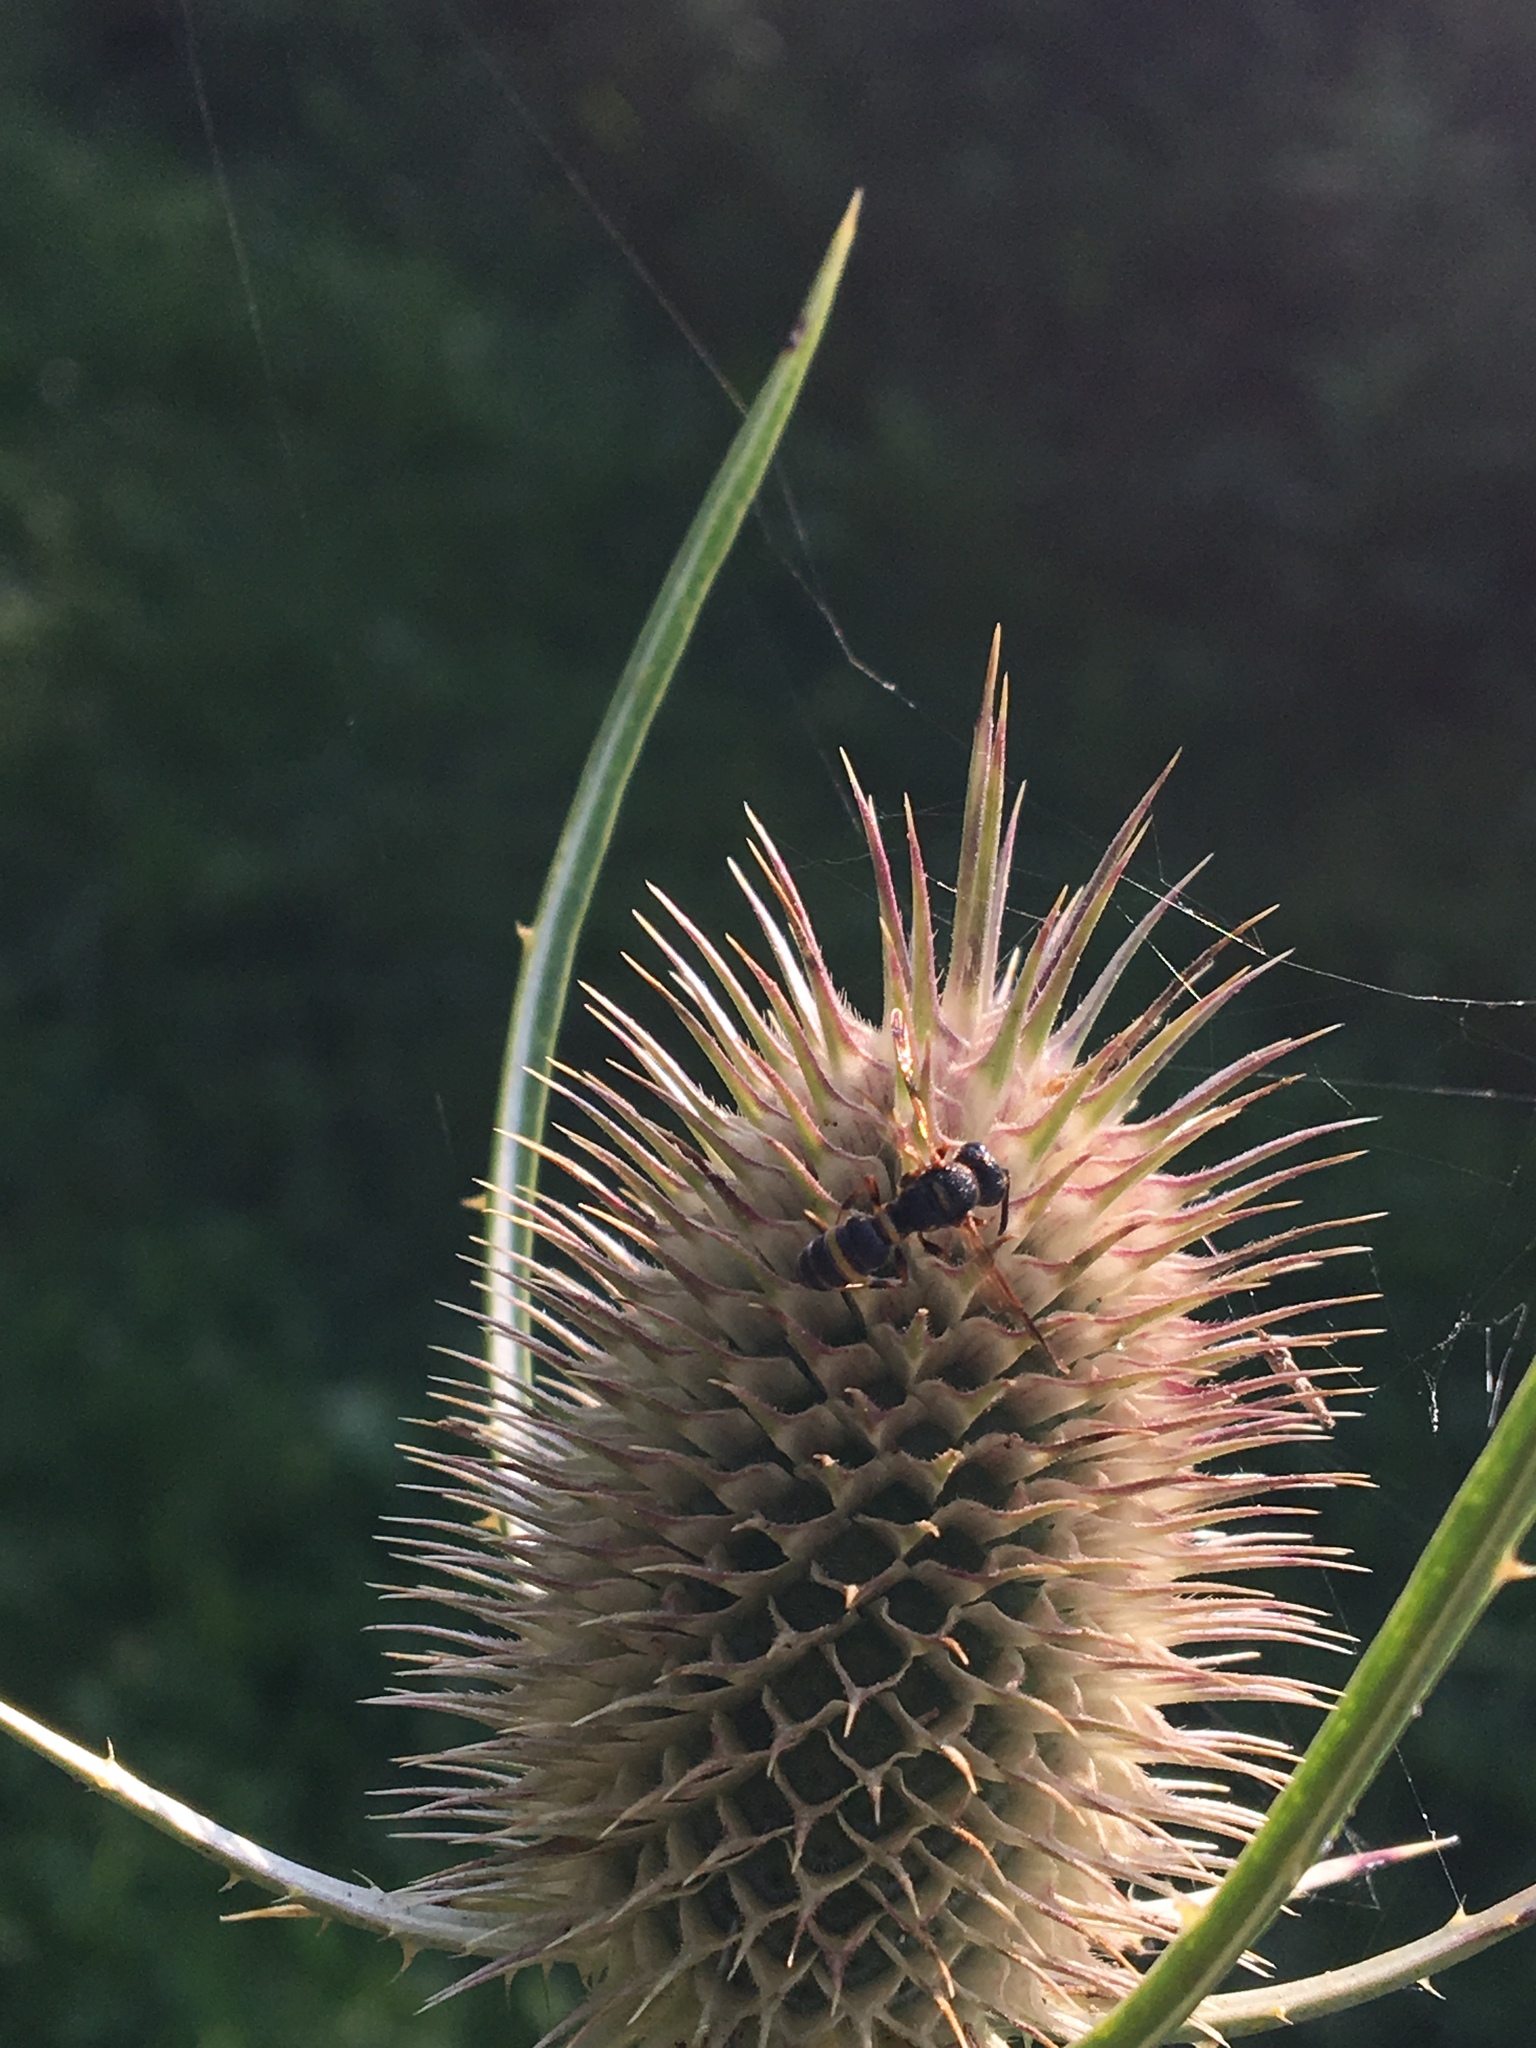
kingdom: Animalia
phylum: Arthropoda
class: Insecta
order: Hymenoptera
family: Crabronidae
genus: Cerceris
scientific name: Cerceris insolita
